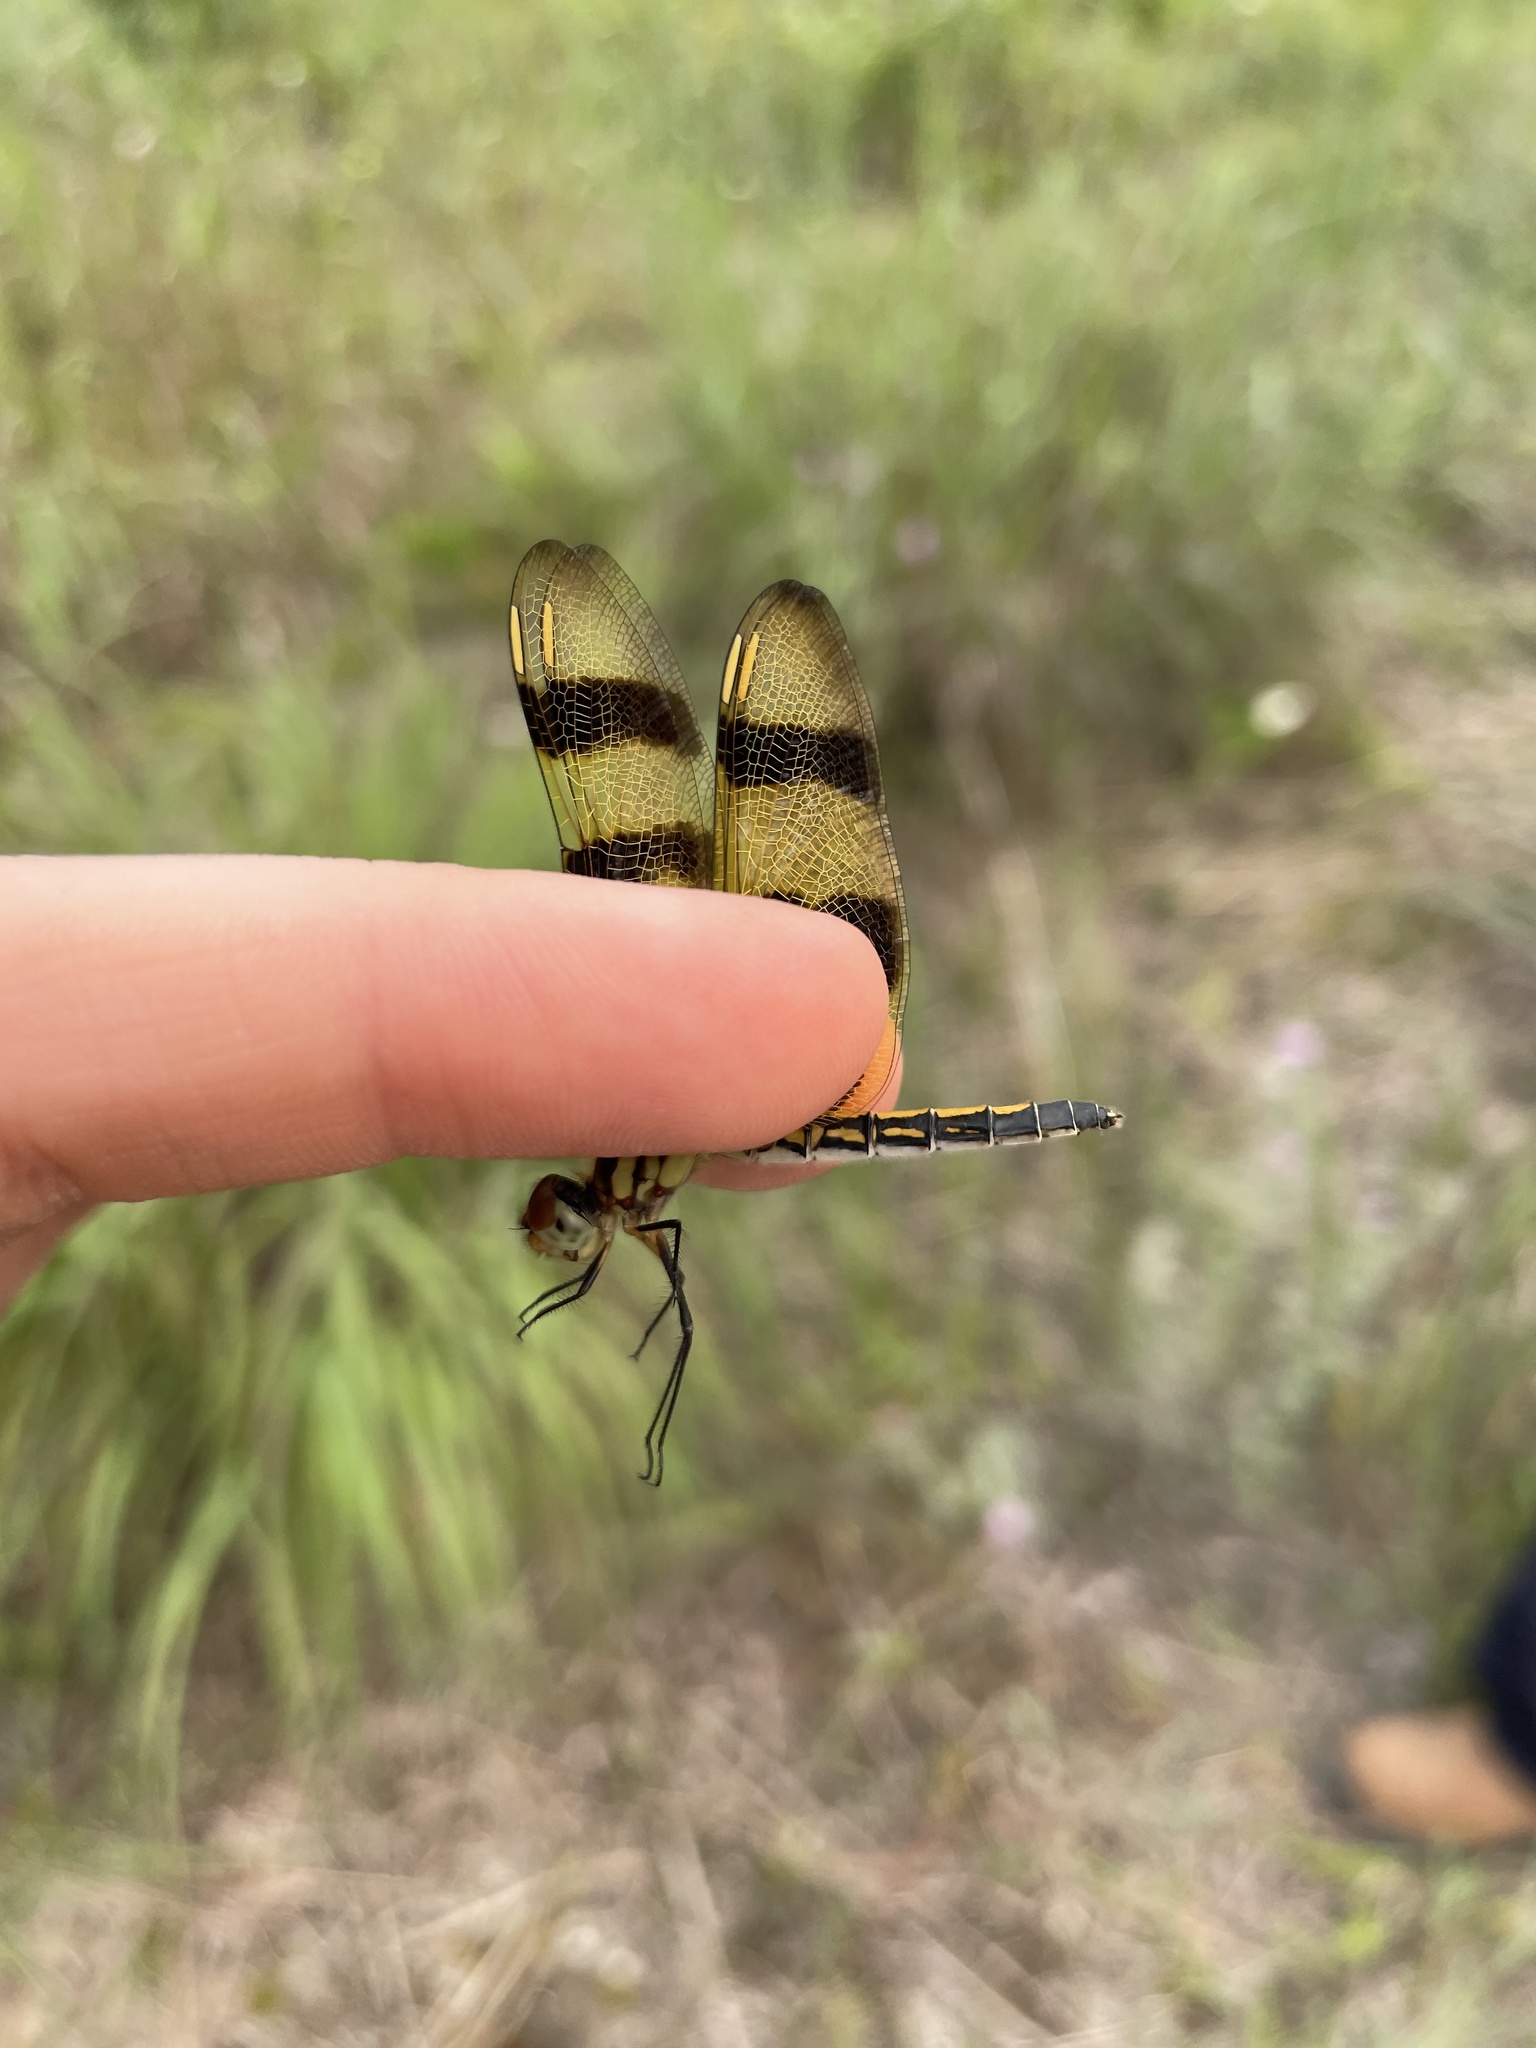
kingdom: Animalia
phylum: Arthropoda
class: Insecta
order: Odonata
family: Libellulidae
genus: Celithemis
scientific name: Celithemis eponina
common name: Halloween pennant
